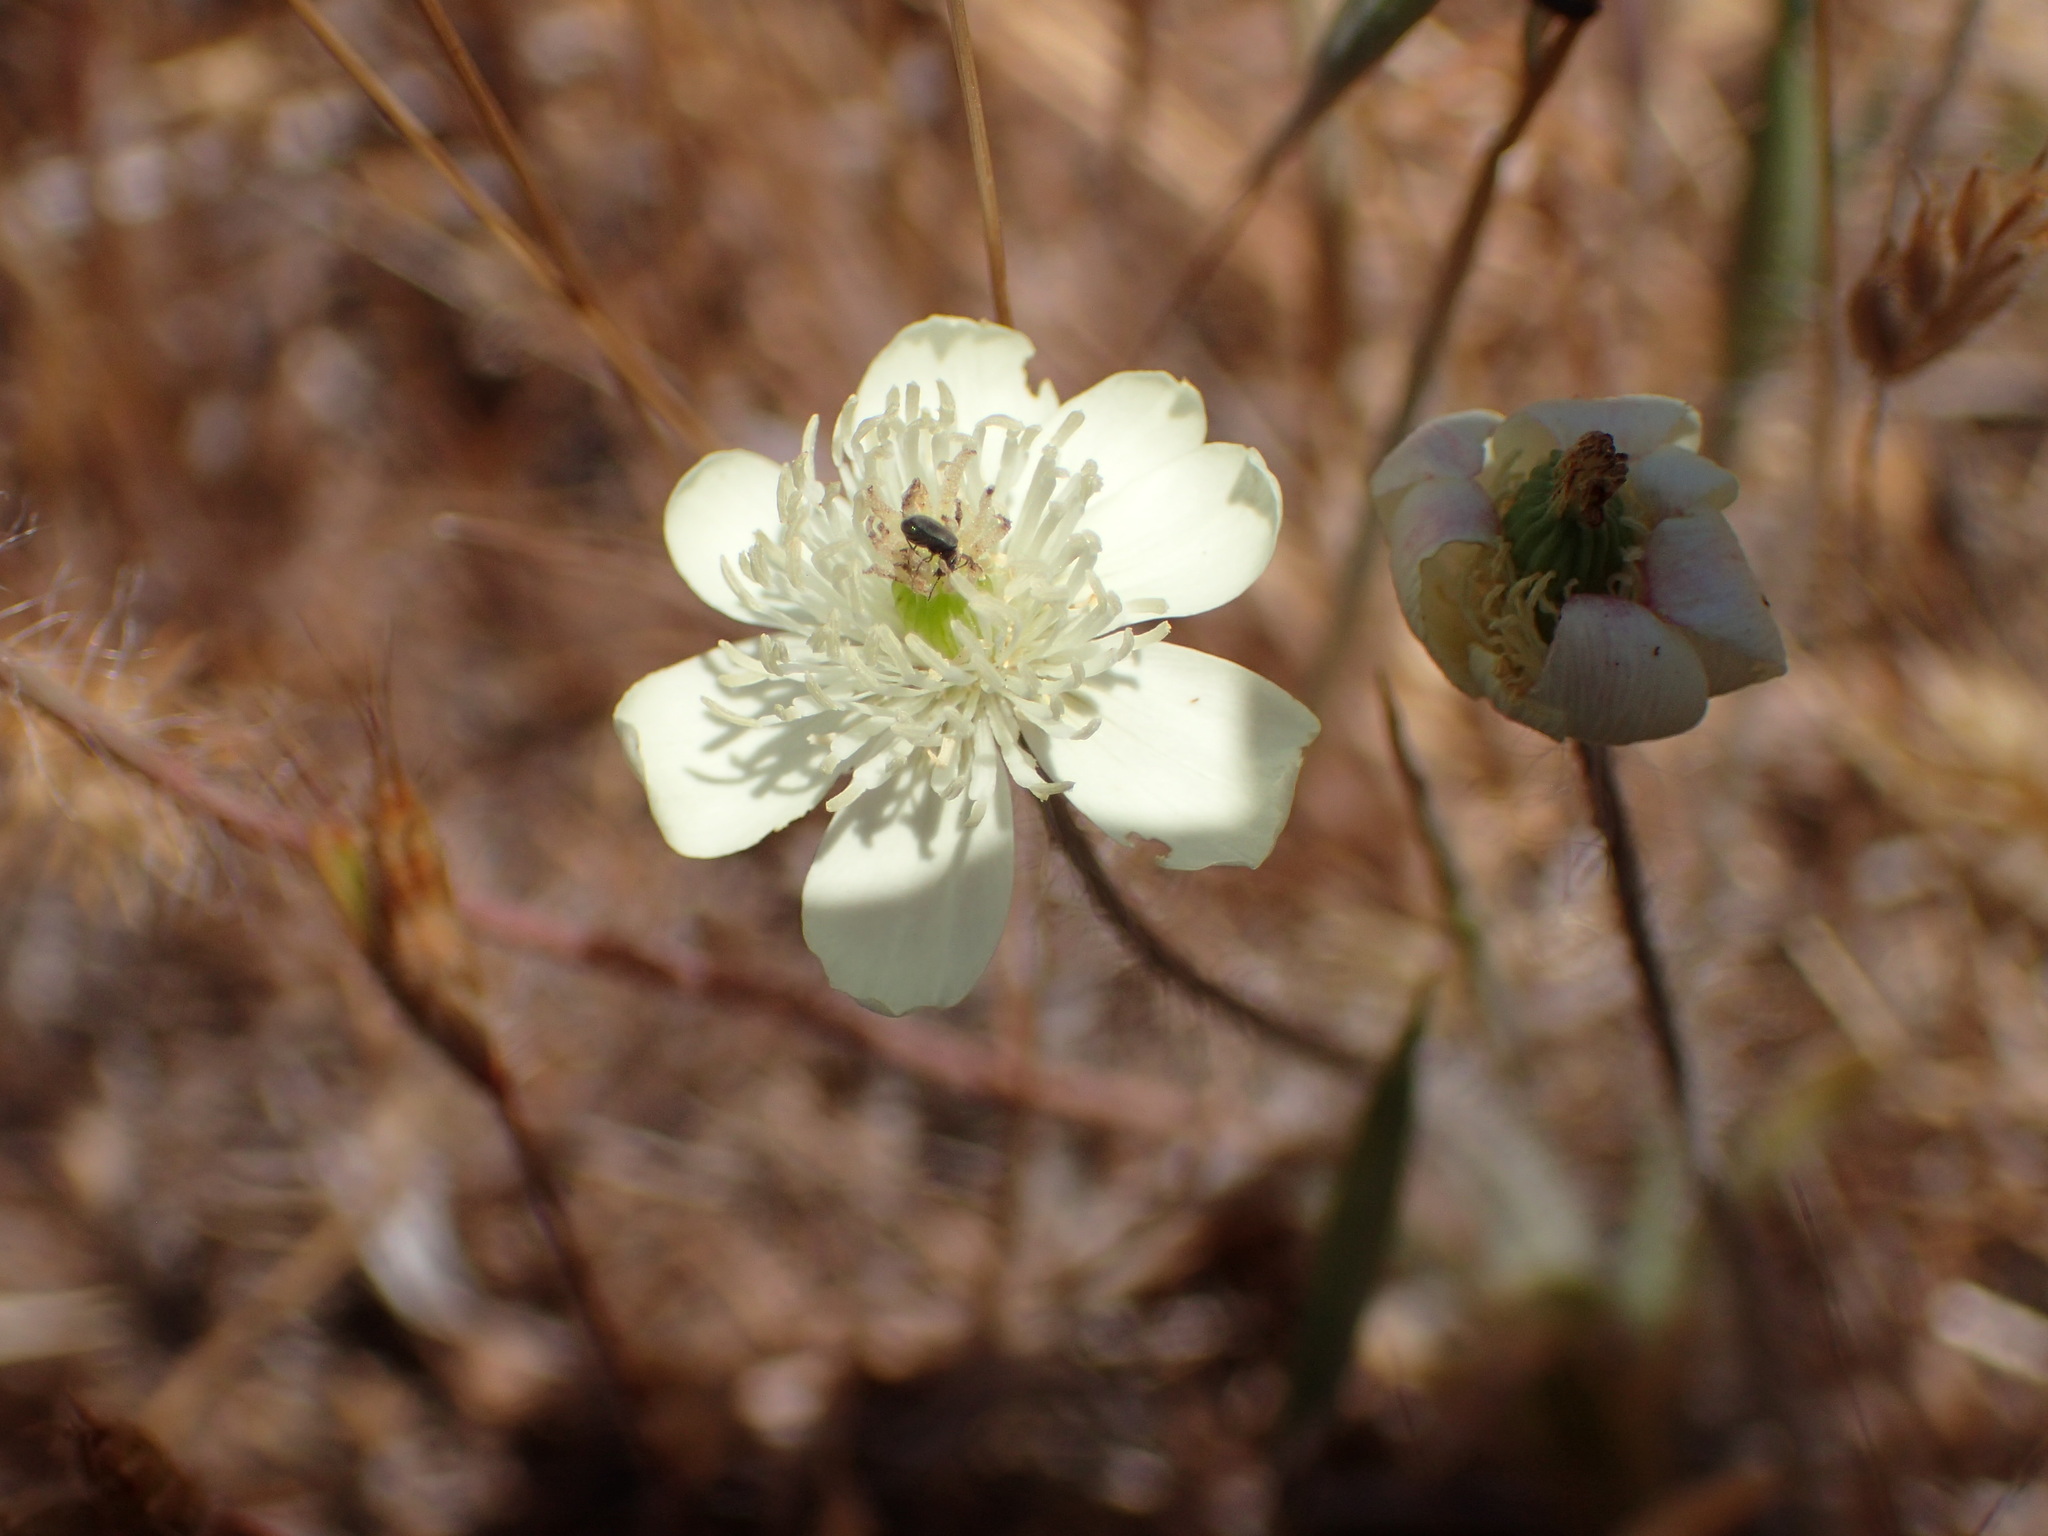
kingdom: Plantae
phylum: Tracheophyta
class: Magnoliopsida
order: Ranunculales
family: Papaveraceae
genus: Platystemon
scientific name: Platystemon californicus
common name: Cream-cups
